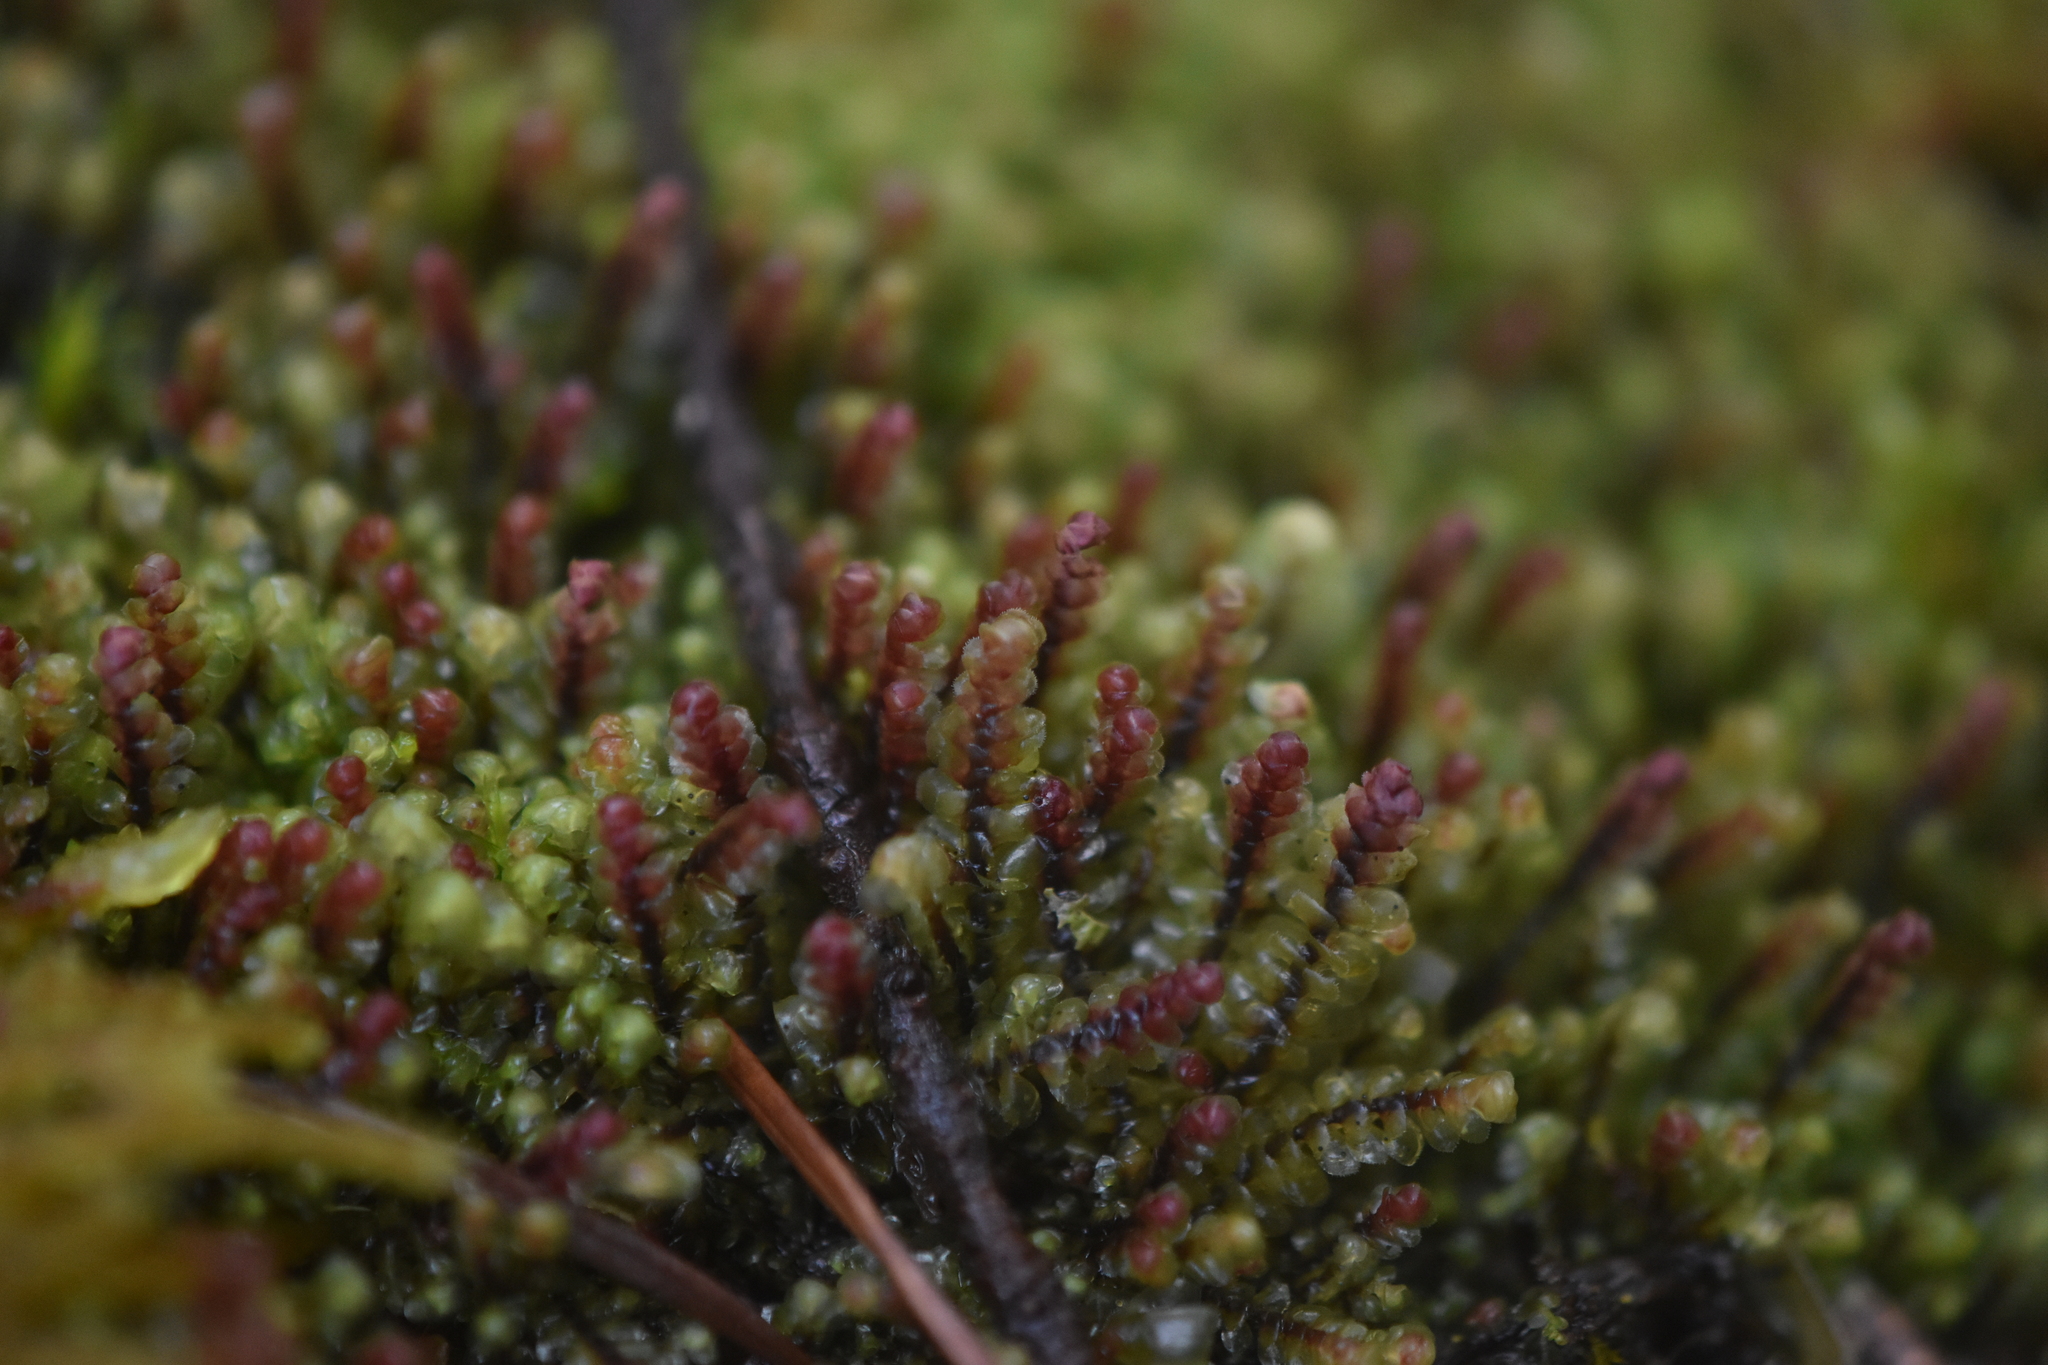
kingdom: Plantae
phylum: Marchantiophyta
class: Jungermanniopsida
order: Jungermanniales
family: Scapaniaceae
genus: Scapania
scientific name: Scapania americana
